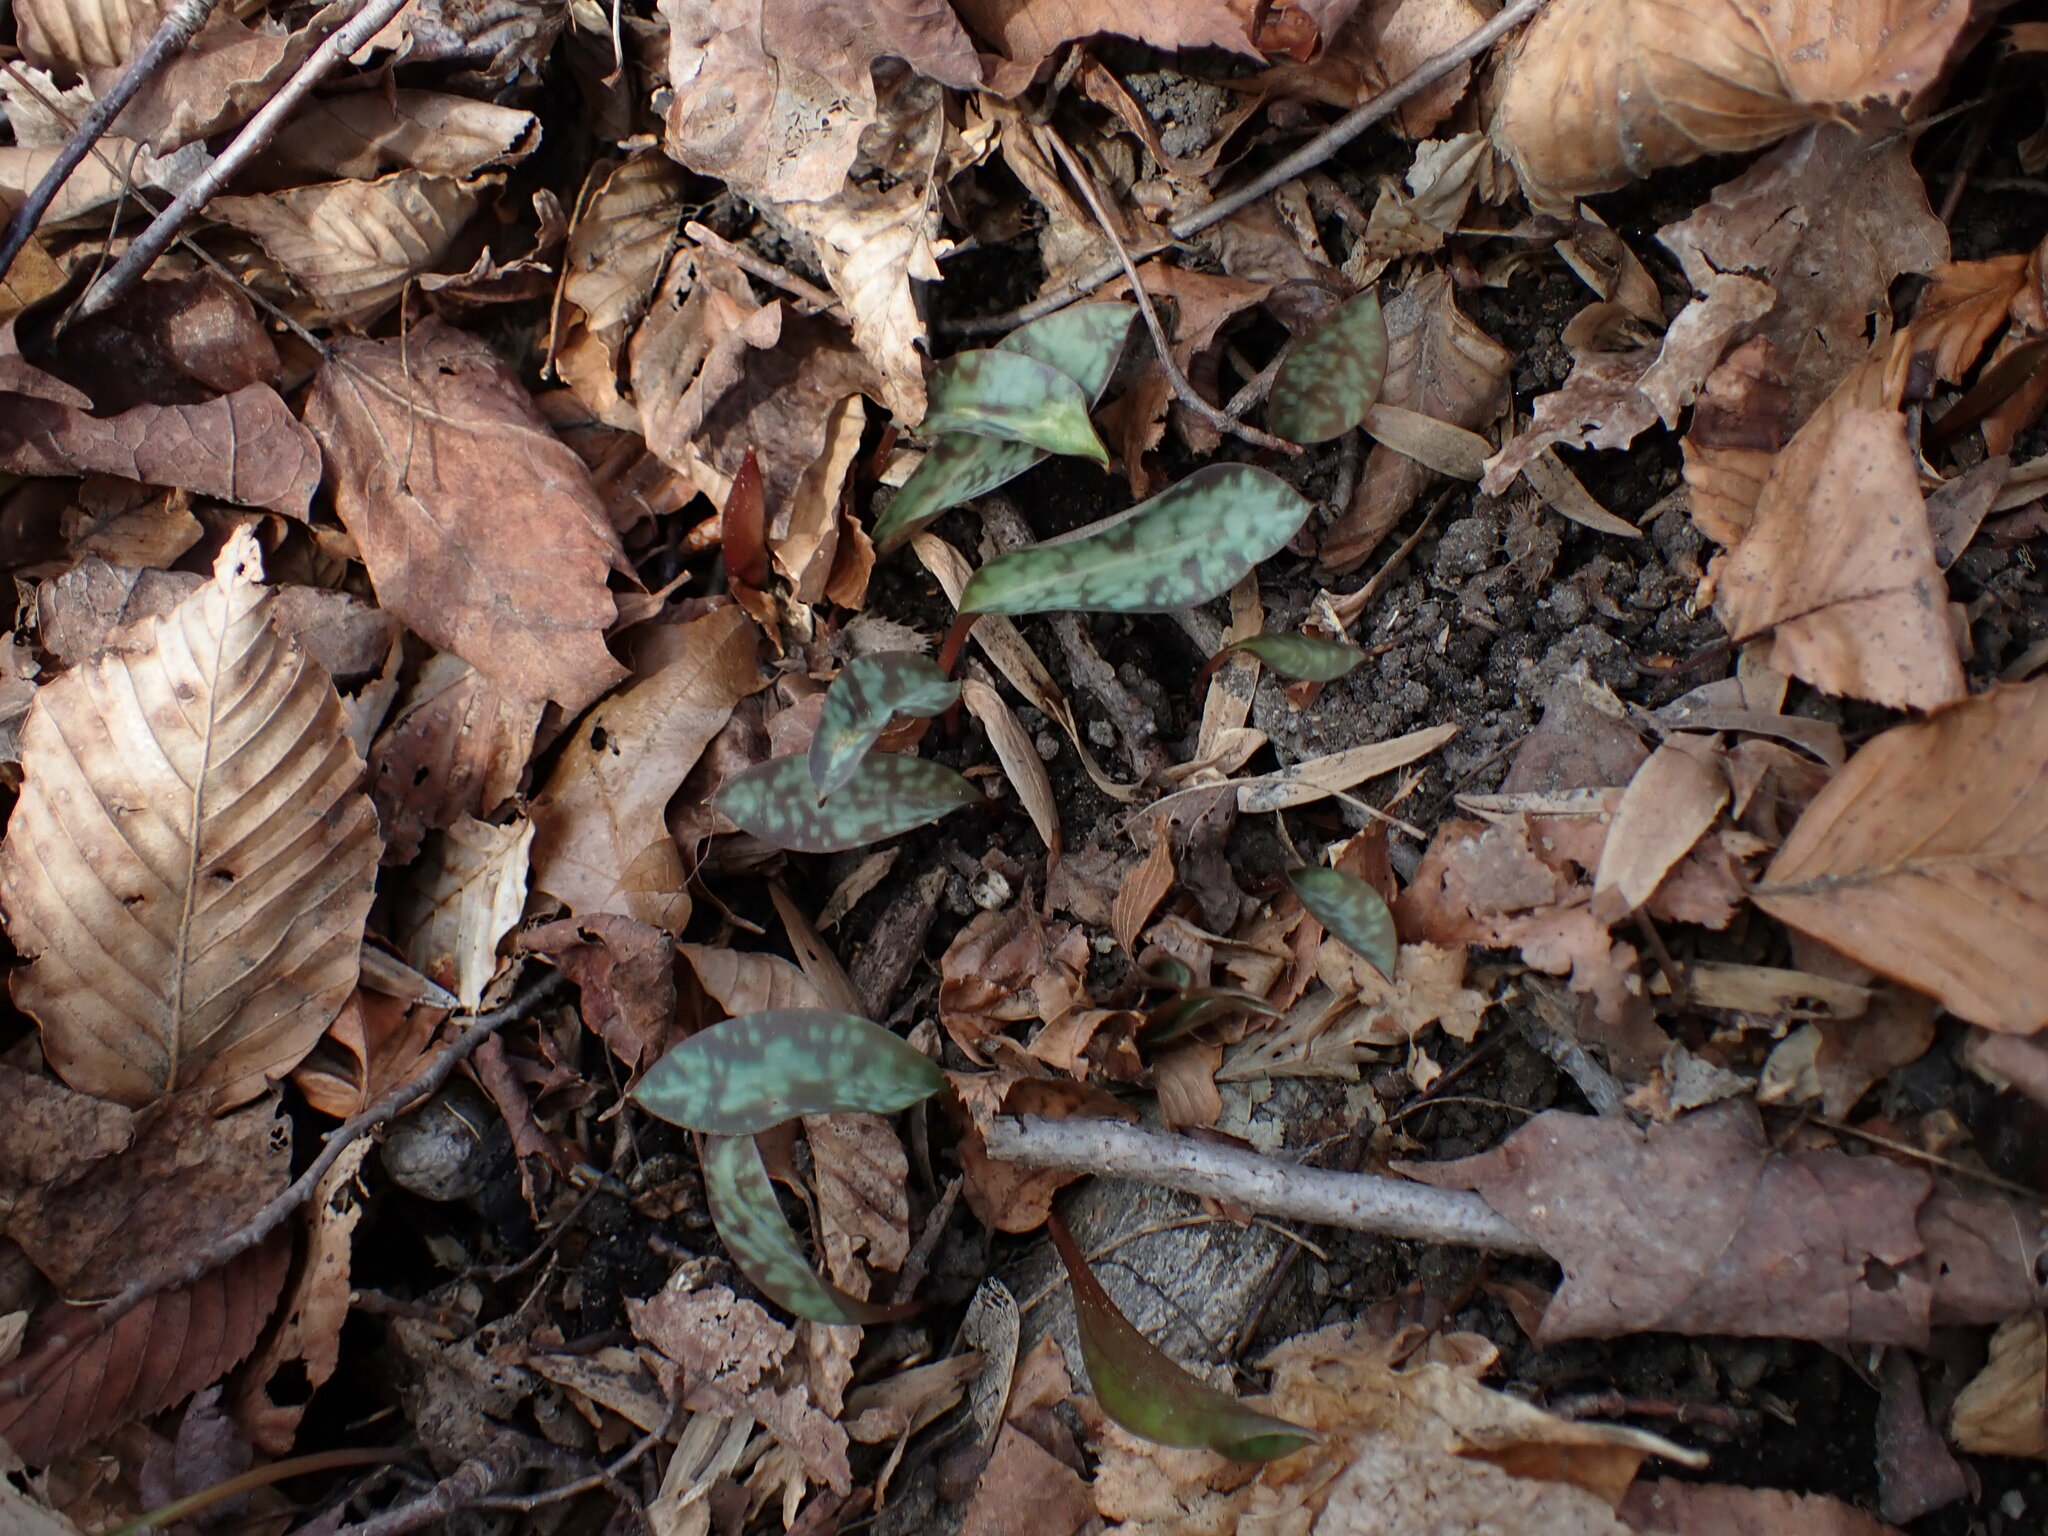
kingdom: Plantae
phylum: Tracheophyta
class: Liliopsida
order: Liliales
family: Liliaceae
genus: Erythronium
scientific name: Erythronium americanum
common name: Yellow adder's-tongue
